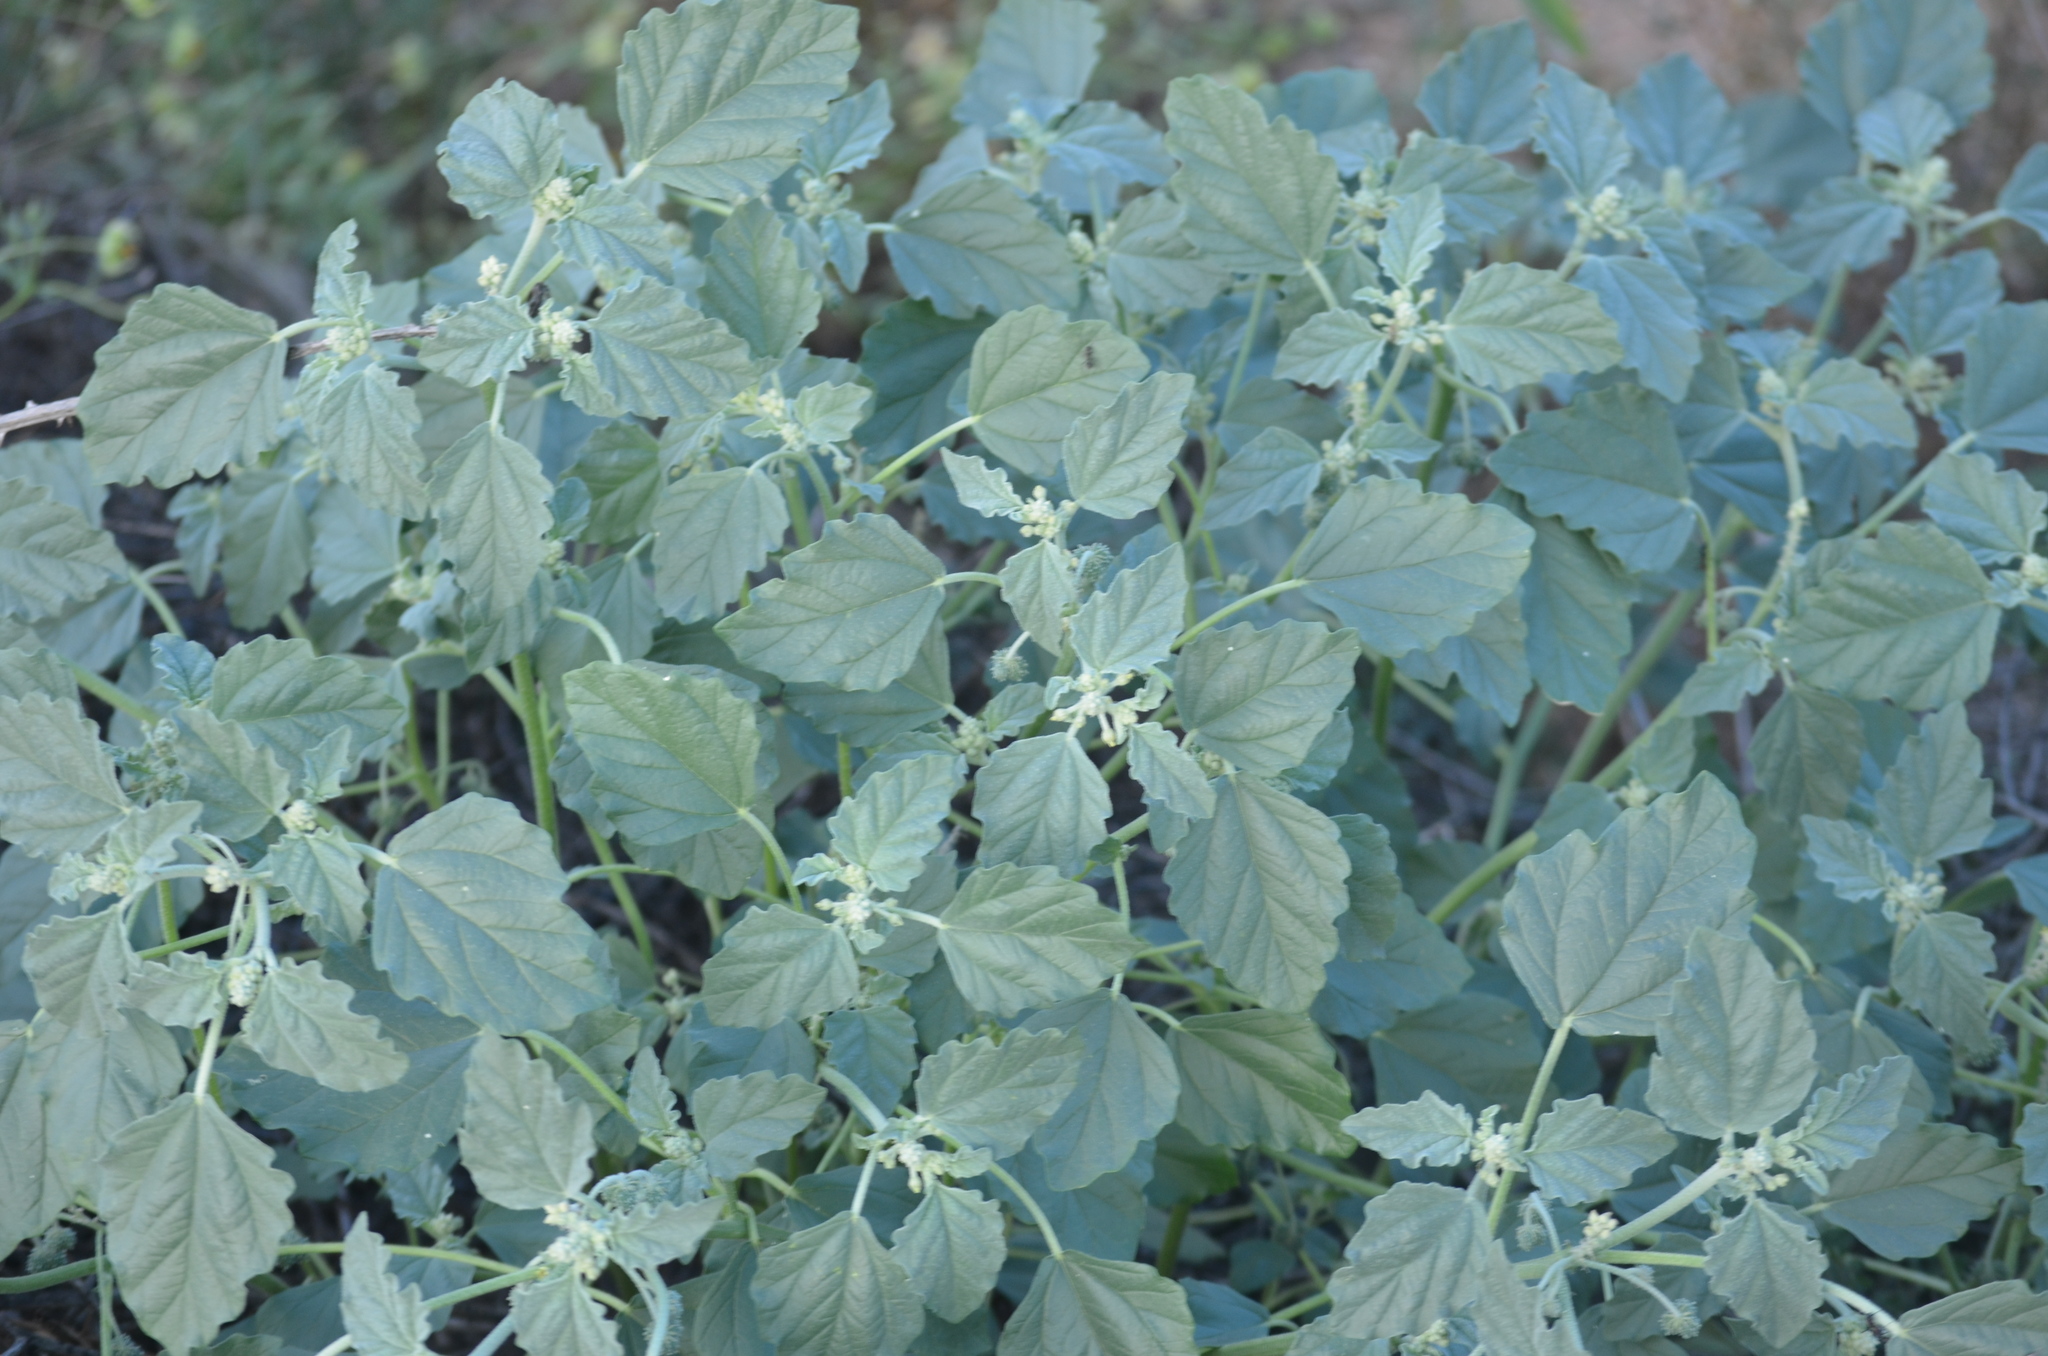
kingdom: Plantae
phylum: Tracheophyta
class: Magnoliopsida
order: Malpighiales
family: Euphorbiaceae
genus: Chrozophora
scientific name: Chrozophora tinctoria
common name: Dyer's litmus
